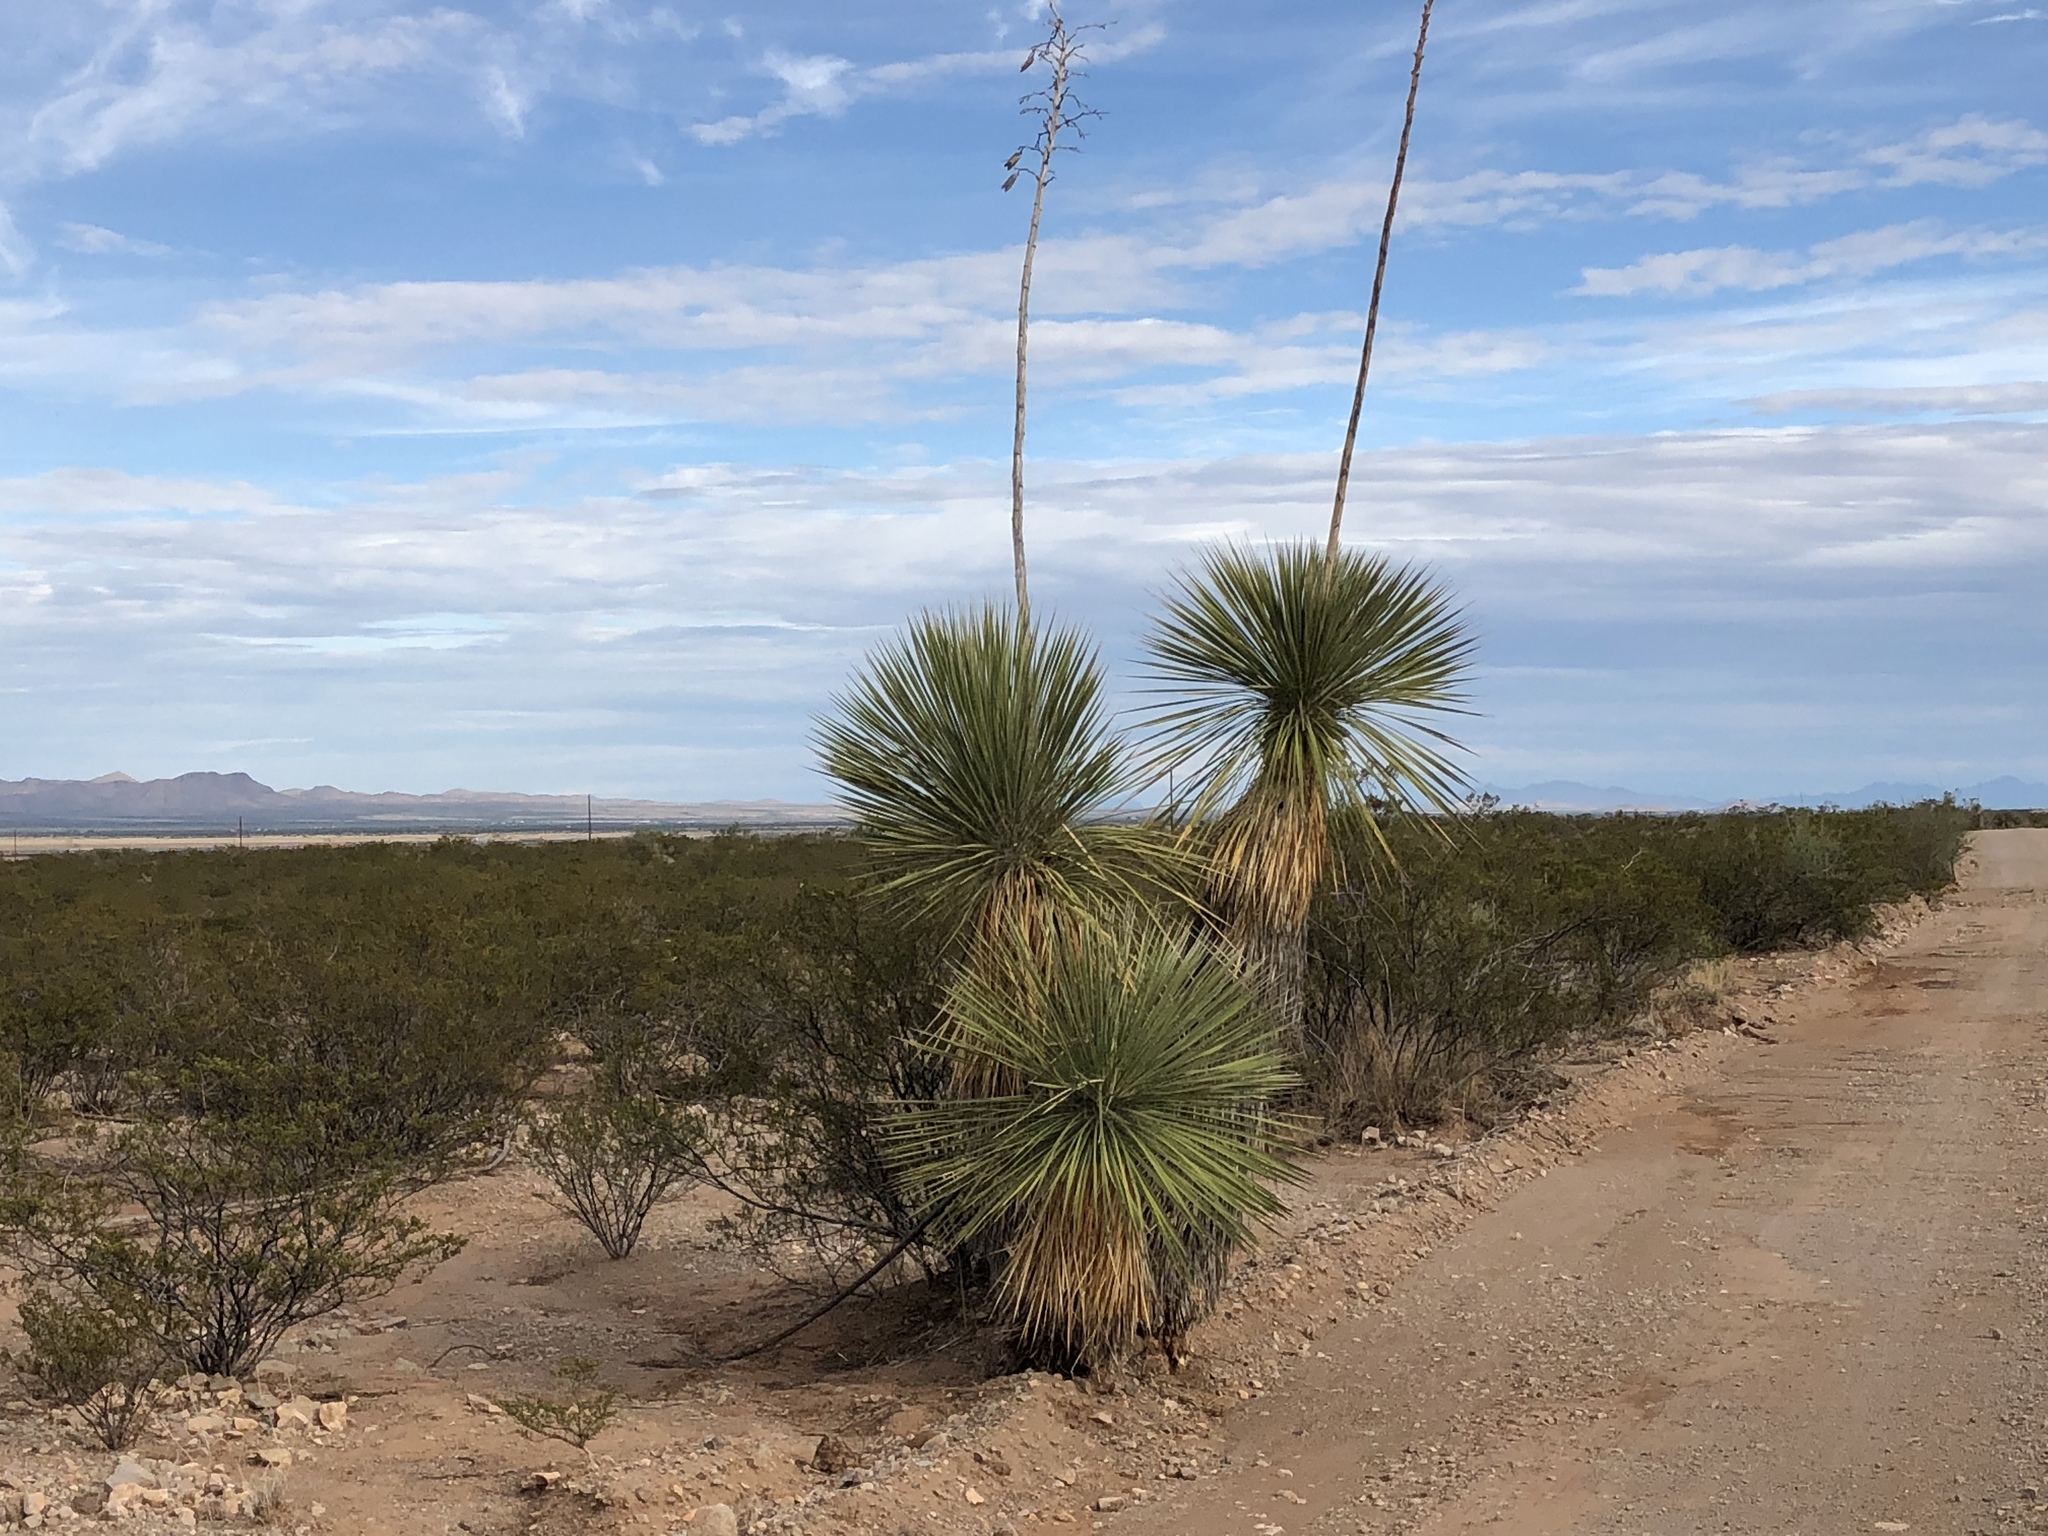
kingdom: Plantae
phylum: Tracheophyta
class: Liliopsida
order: Asparagales
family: Asparagaceae
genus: Yucca
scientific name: Yucca elata
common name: Palmella
